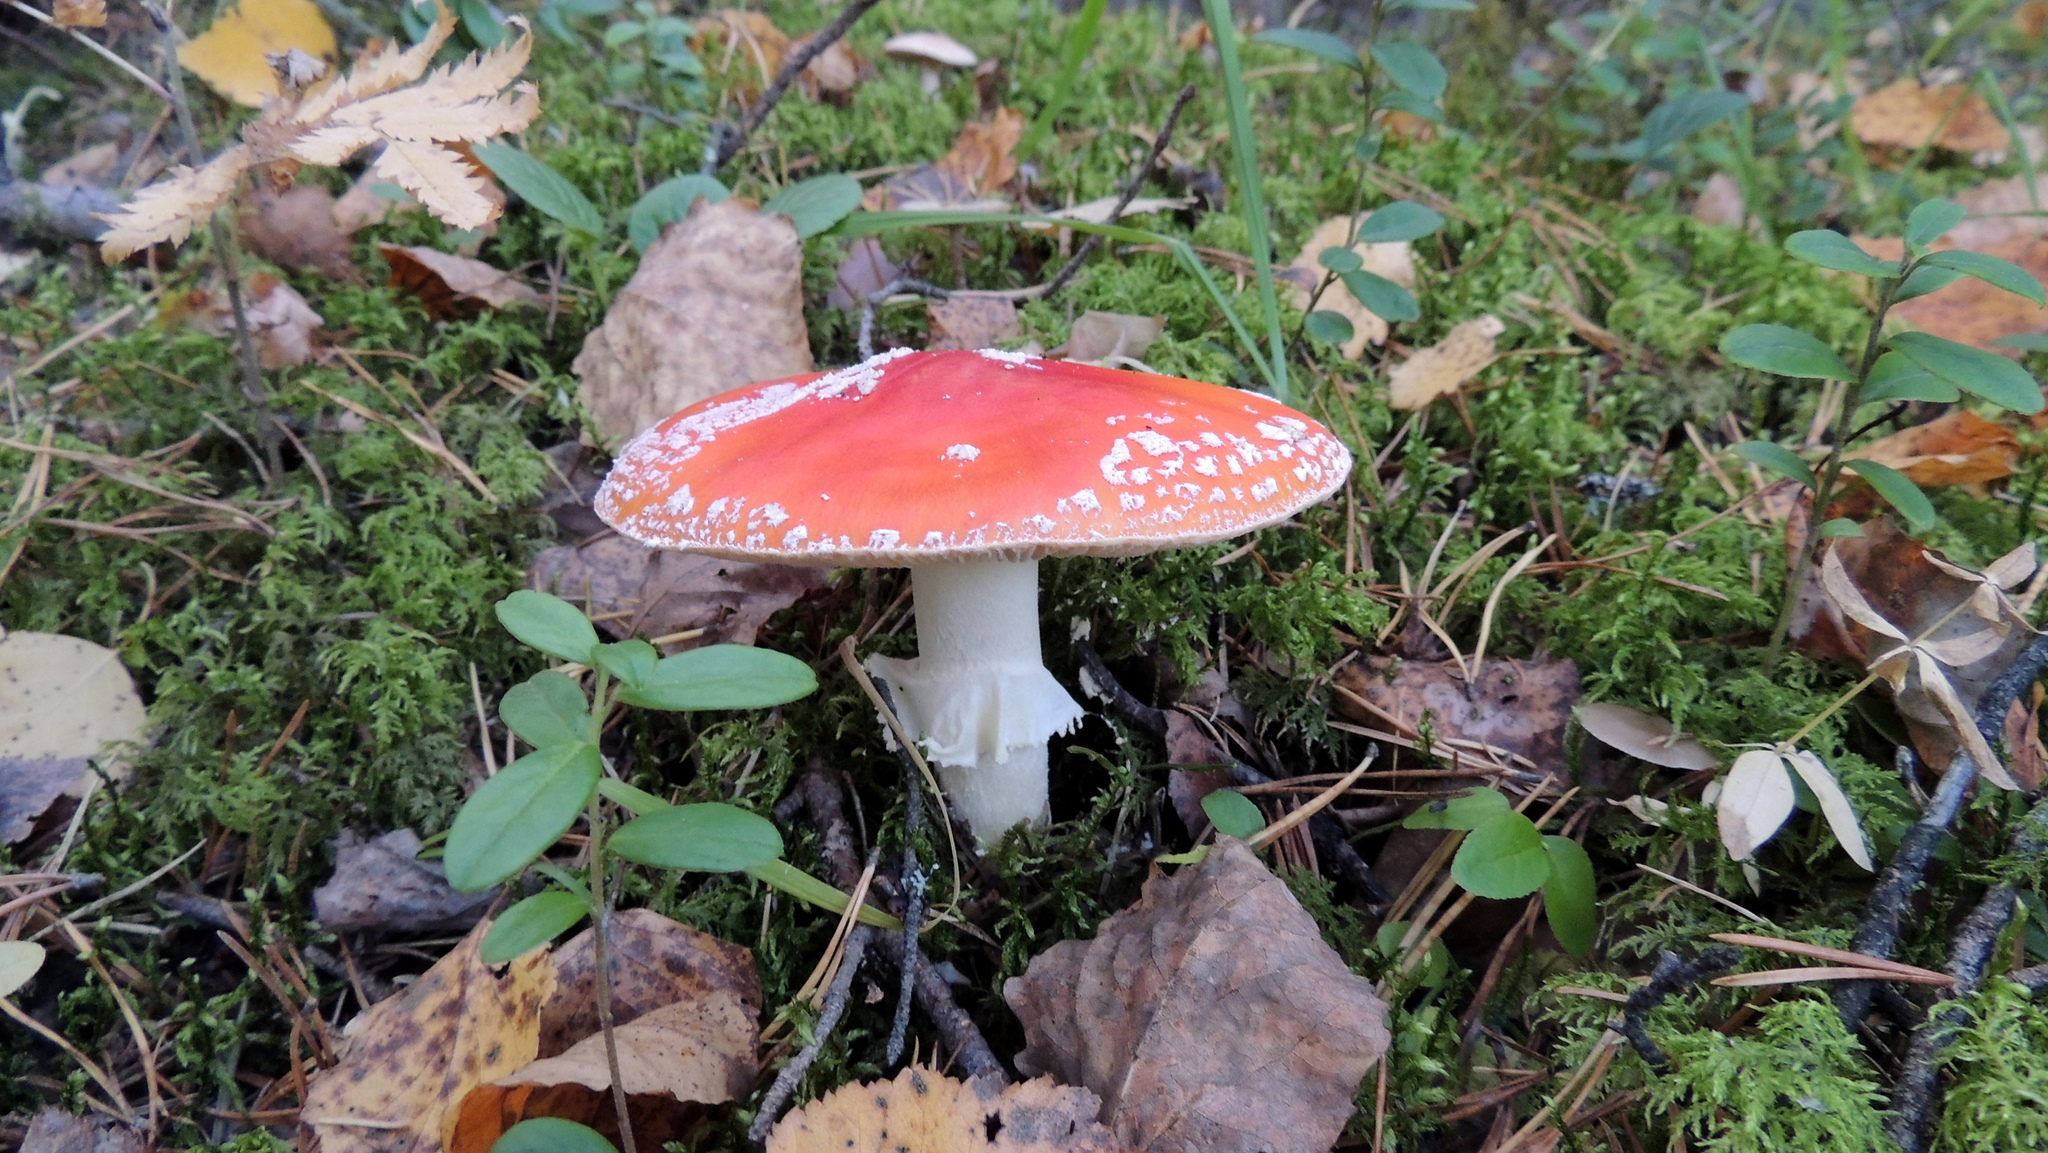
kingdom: Fungi
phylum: Basidiomycota
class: Agaricomycetes
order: Agaricales
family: Amanitaceae
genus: Amanita
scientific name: Amanita muscaria
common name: Fly agaric
